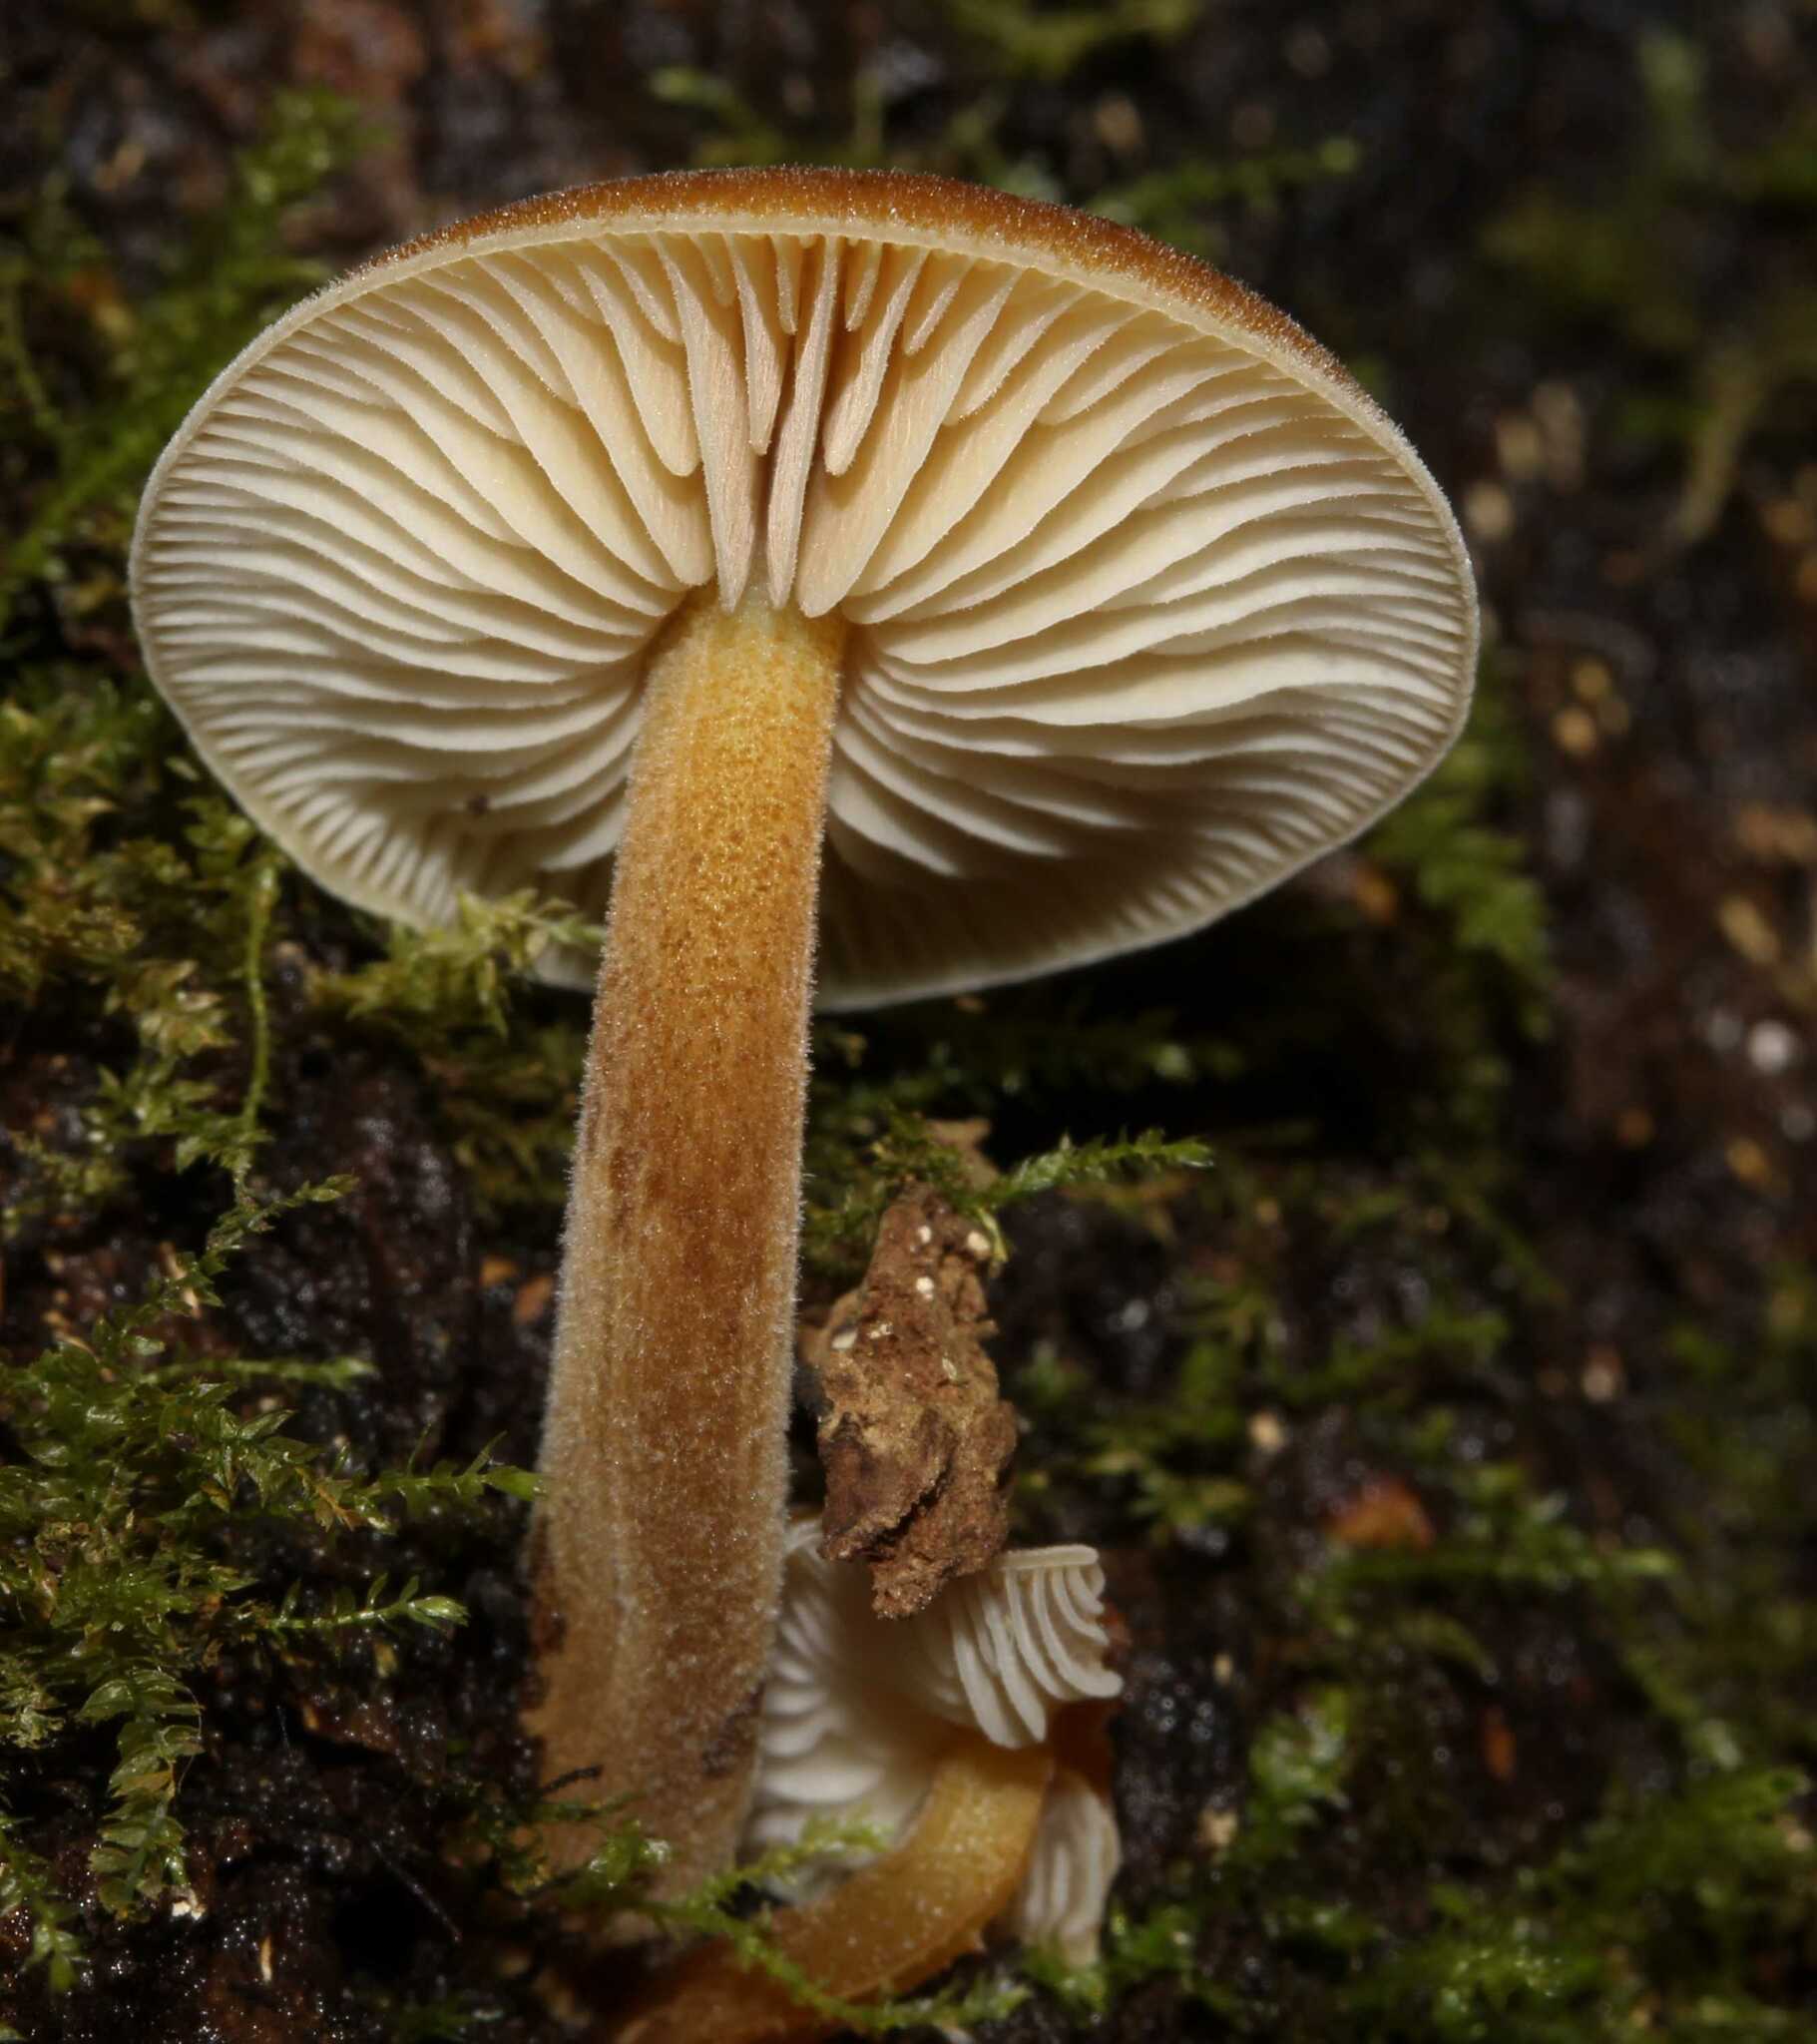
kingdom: Fungi
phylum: Basidiomycota
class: Agaricomycetes
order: Agaricales
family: Physalacriaceae
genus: Flammulina
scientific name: Flammulina
